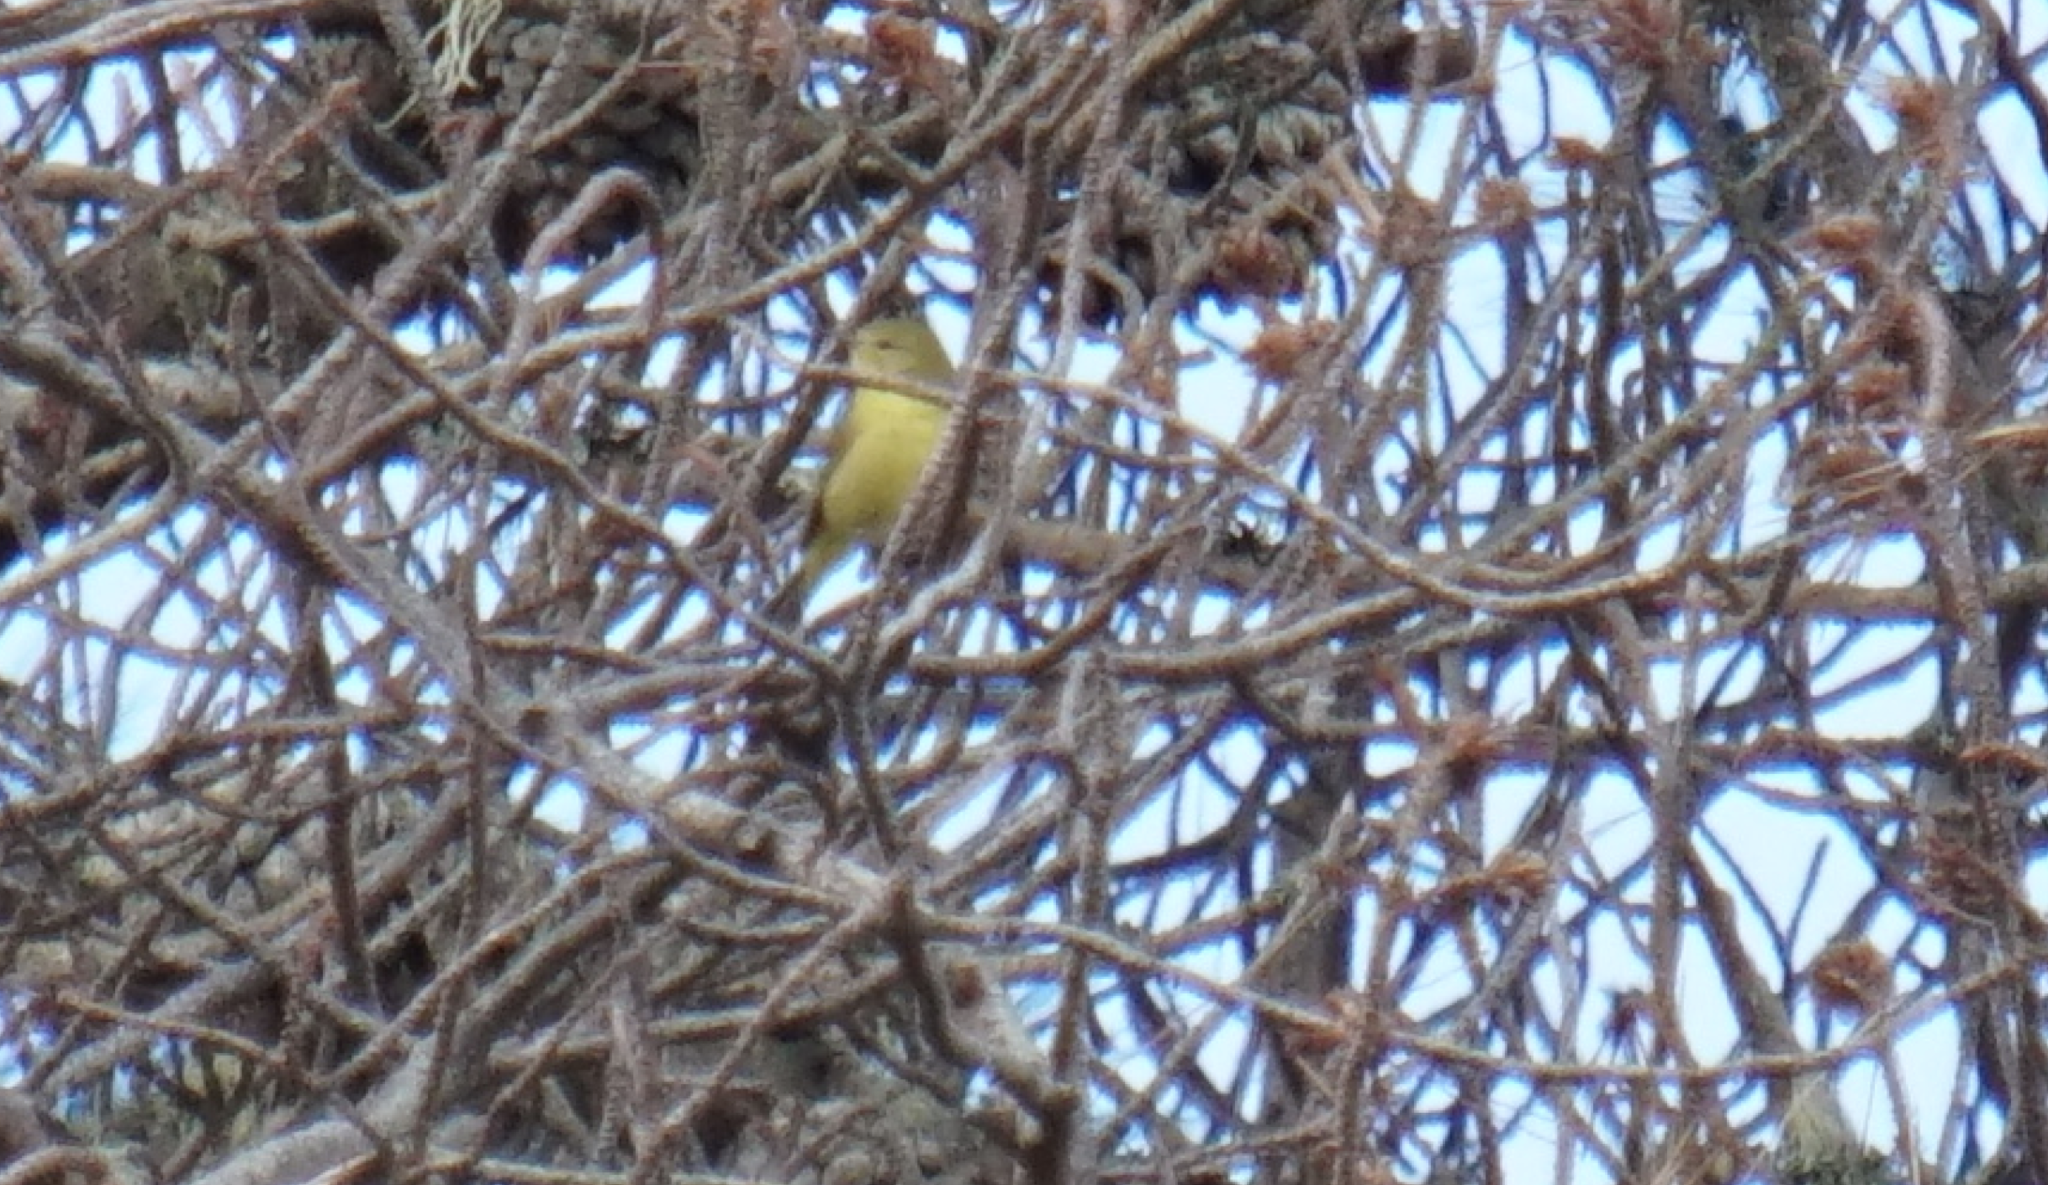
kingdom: Animalia
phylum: Chordata
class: Aves
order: Passeriformes
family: Parulidae
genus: Leiothlypis
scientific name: Leiothlypis celata
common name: Orange-crowned warbler
